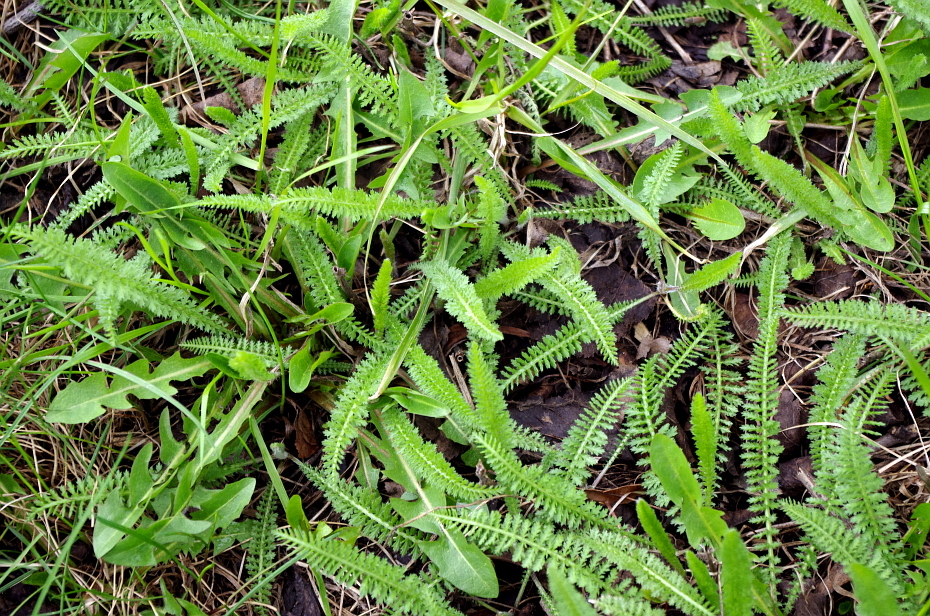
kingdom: Plantae
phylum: Tracheophyta
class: Magnoliopsida
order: Asterales
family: Asteraceae
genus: Achillea
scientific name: Achillea millefolium
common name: Yarrow
